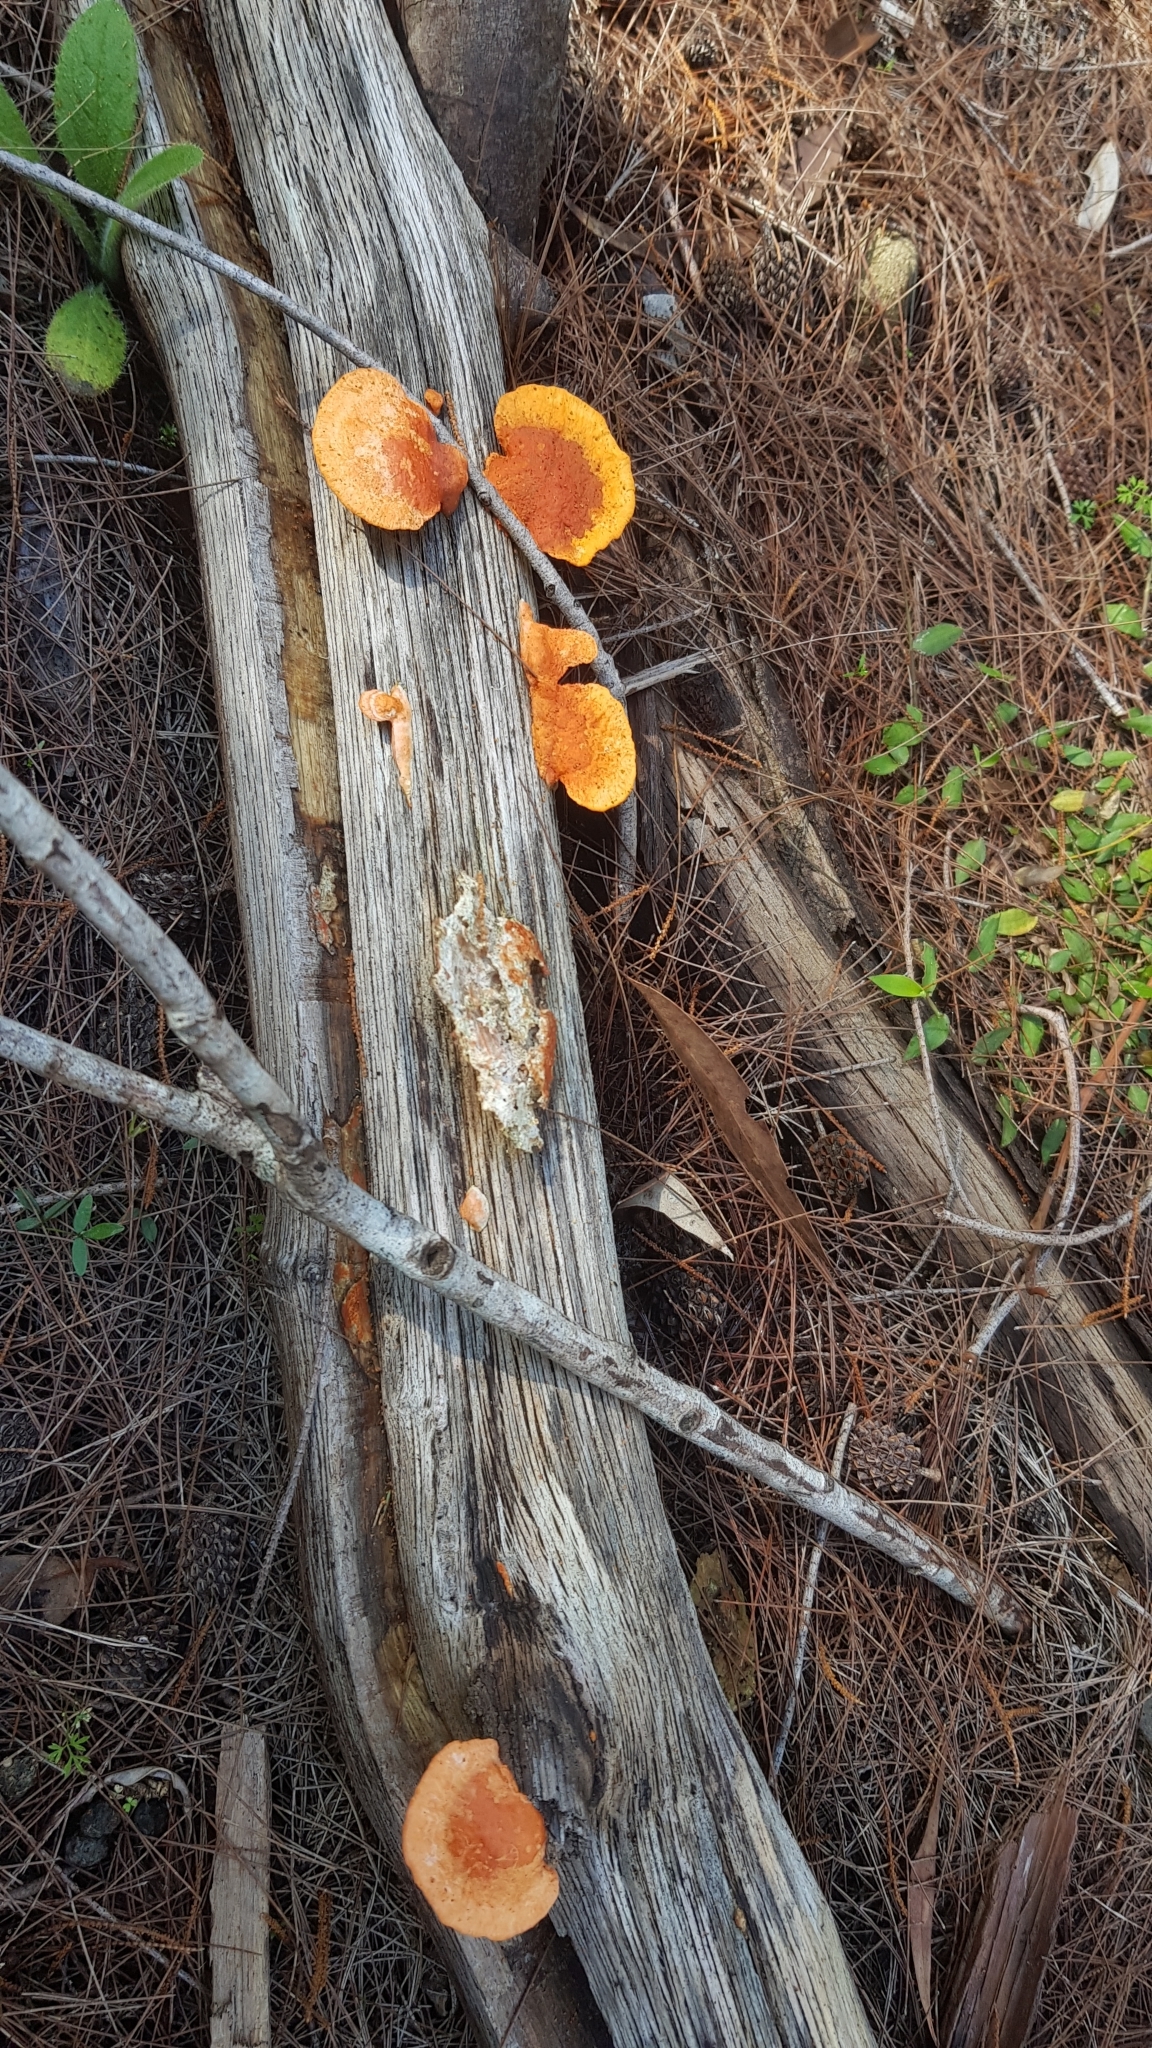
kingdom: Fungi
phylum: Basidiomycota
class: Agaricomycetes
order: Polyporales
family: Polyporaceae
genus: Trametes
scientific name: Trametes coccinea
